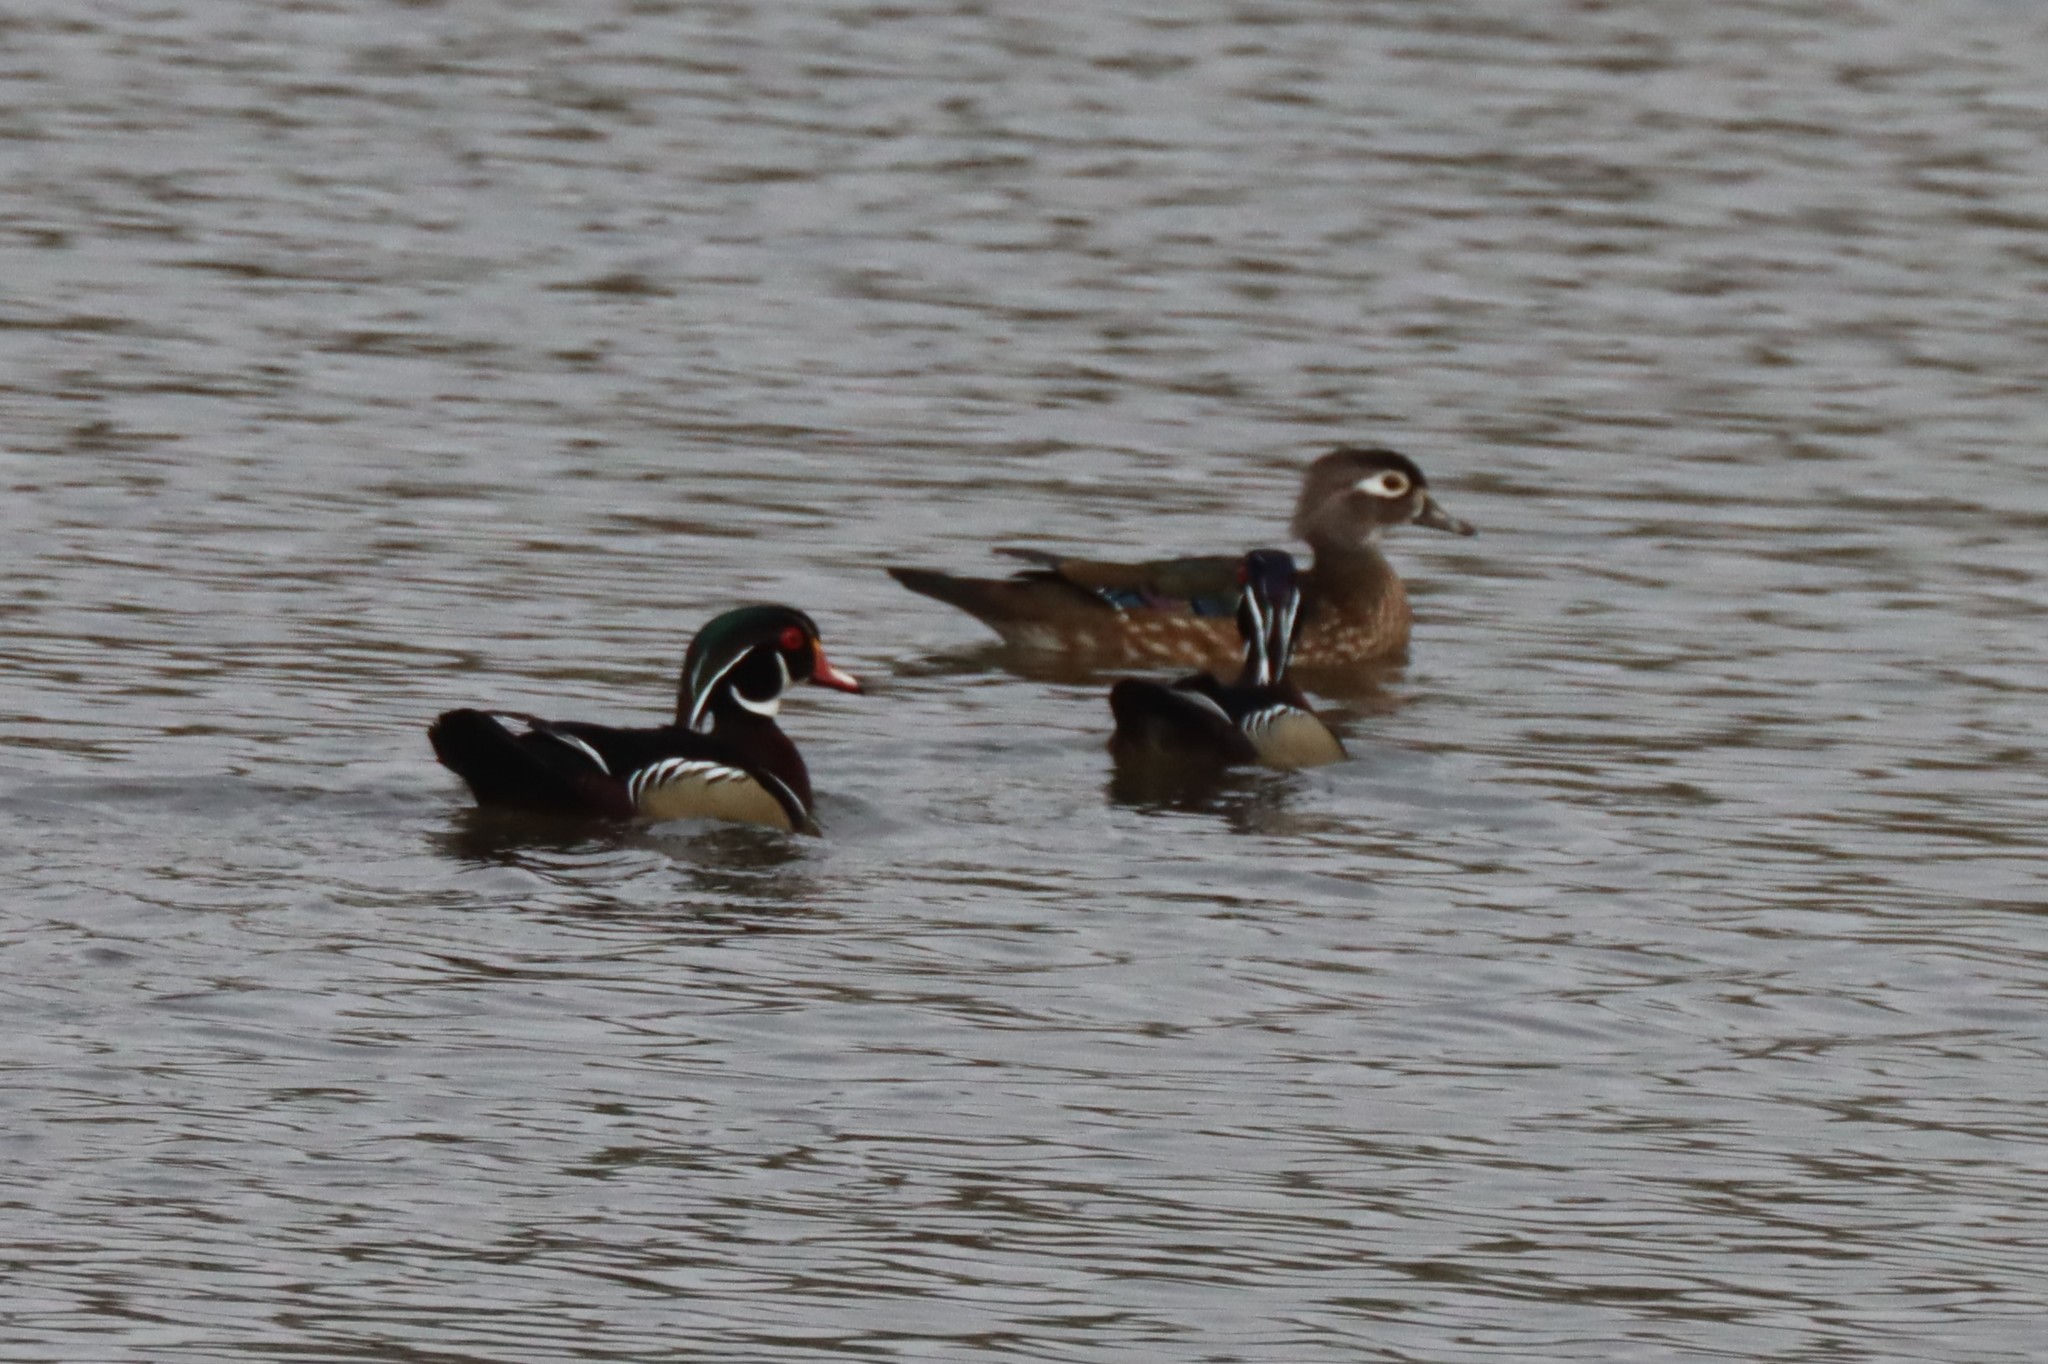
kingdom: Animalia
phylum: Chordata
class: Aves
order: Anseriformes
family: Anatidae
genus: Aix
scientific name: Aix sponsa
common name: Wood duck
